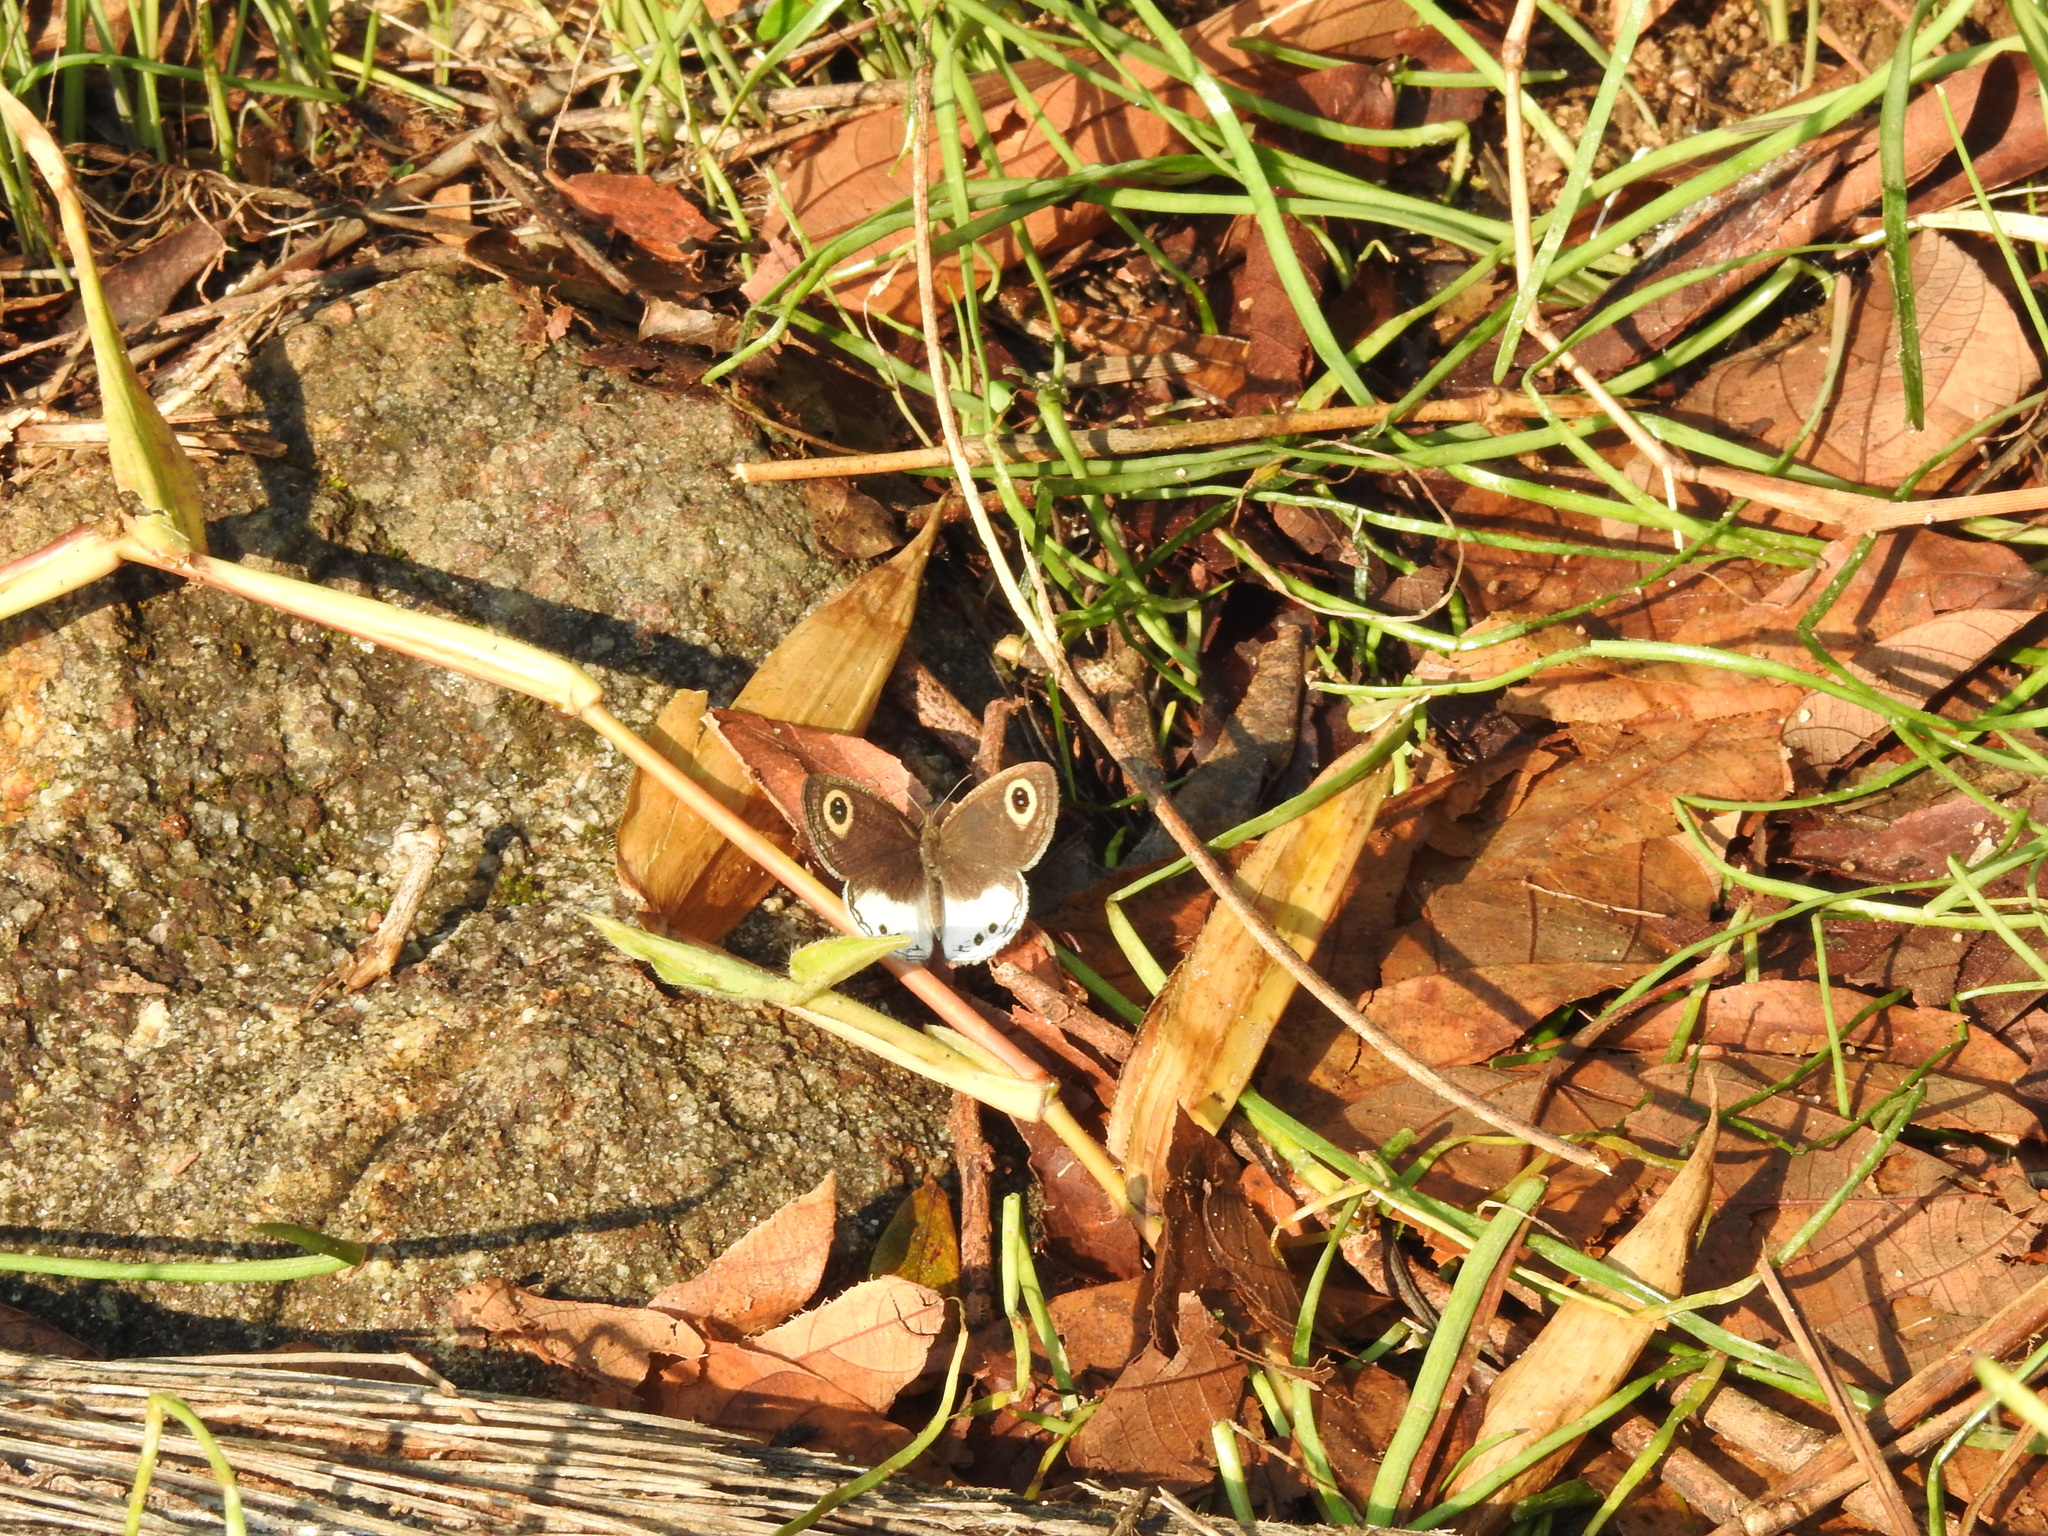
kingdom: Animalia
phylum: Arthropoda
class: Insecta
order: Lepidoptera
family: Nymphalidae
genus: Ypthima
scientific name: Ypthima ceylonica
